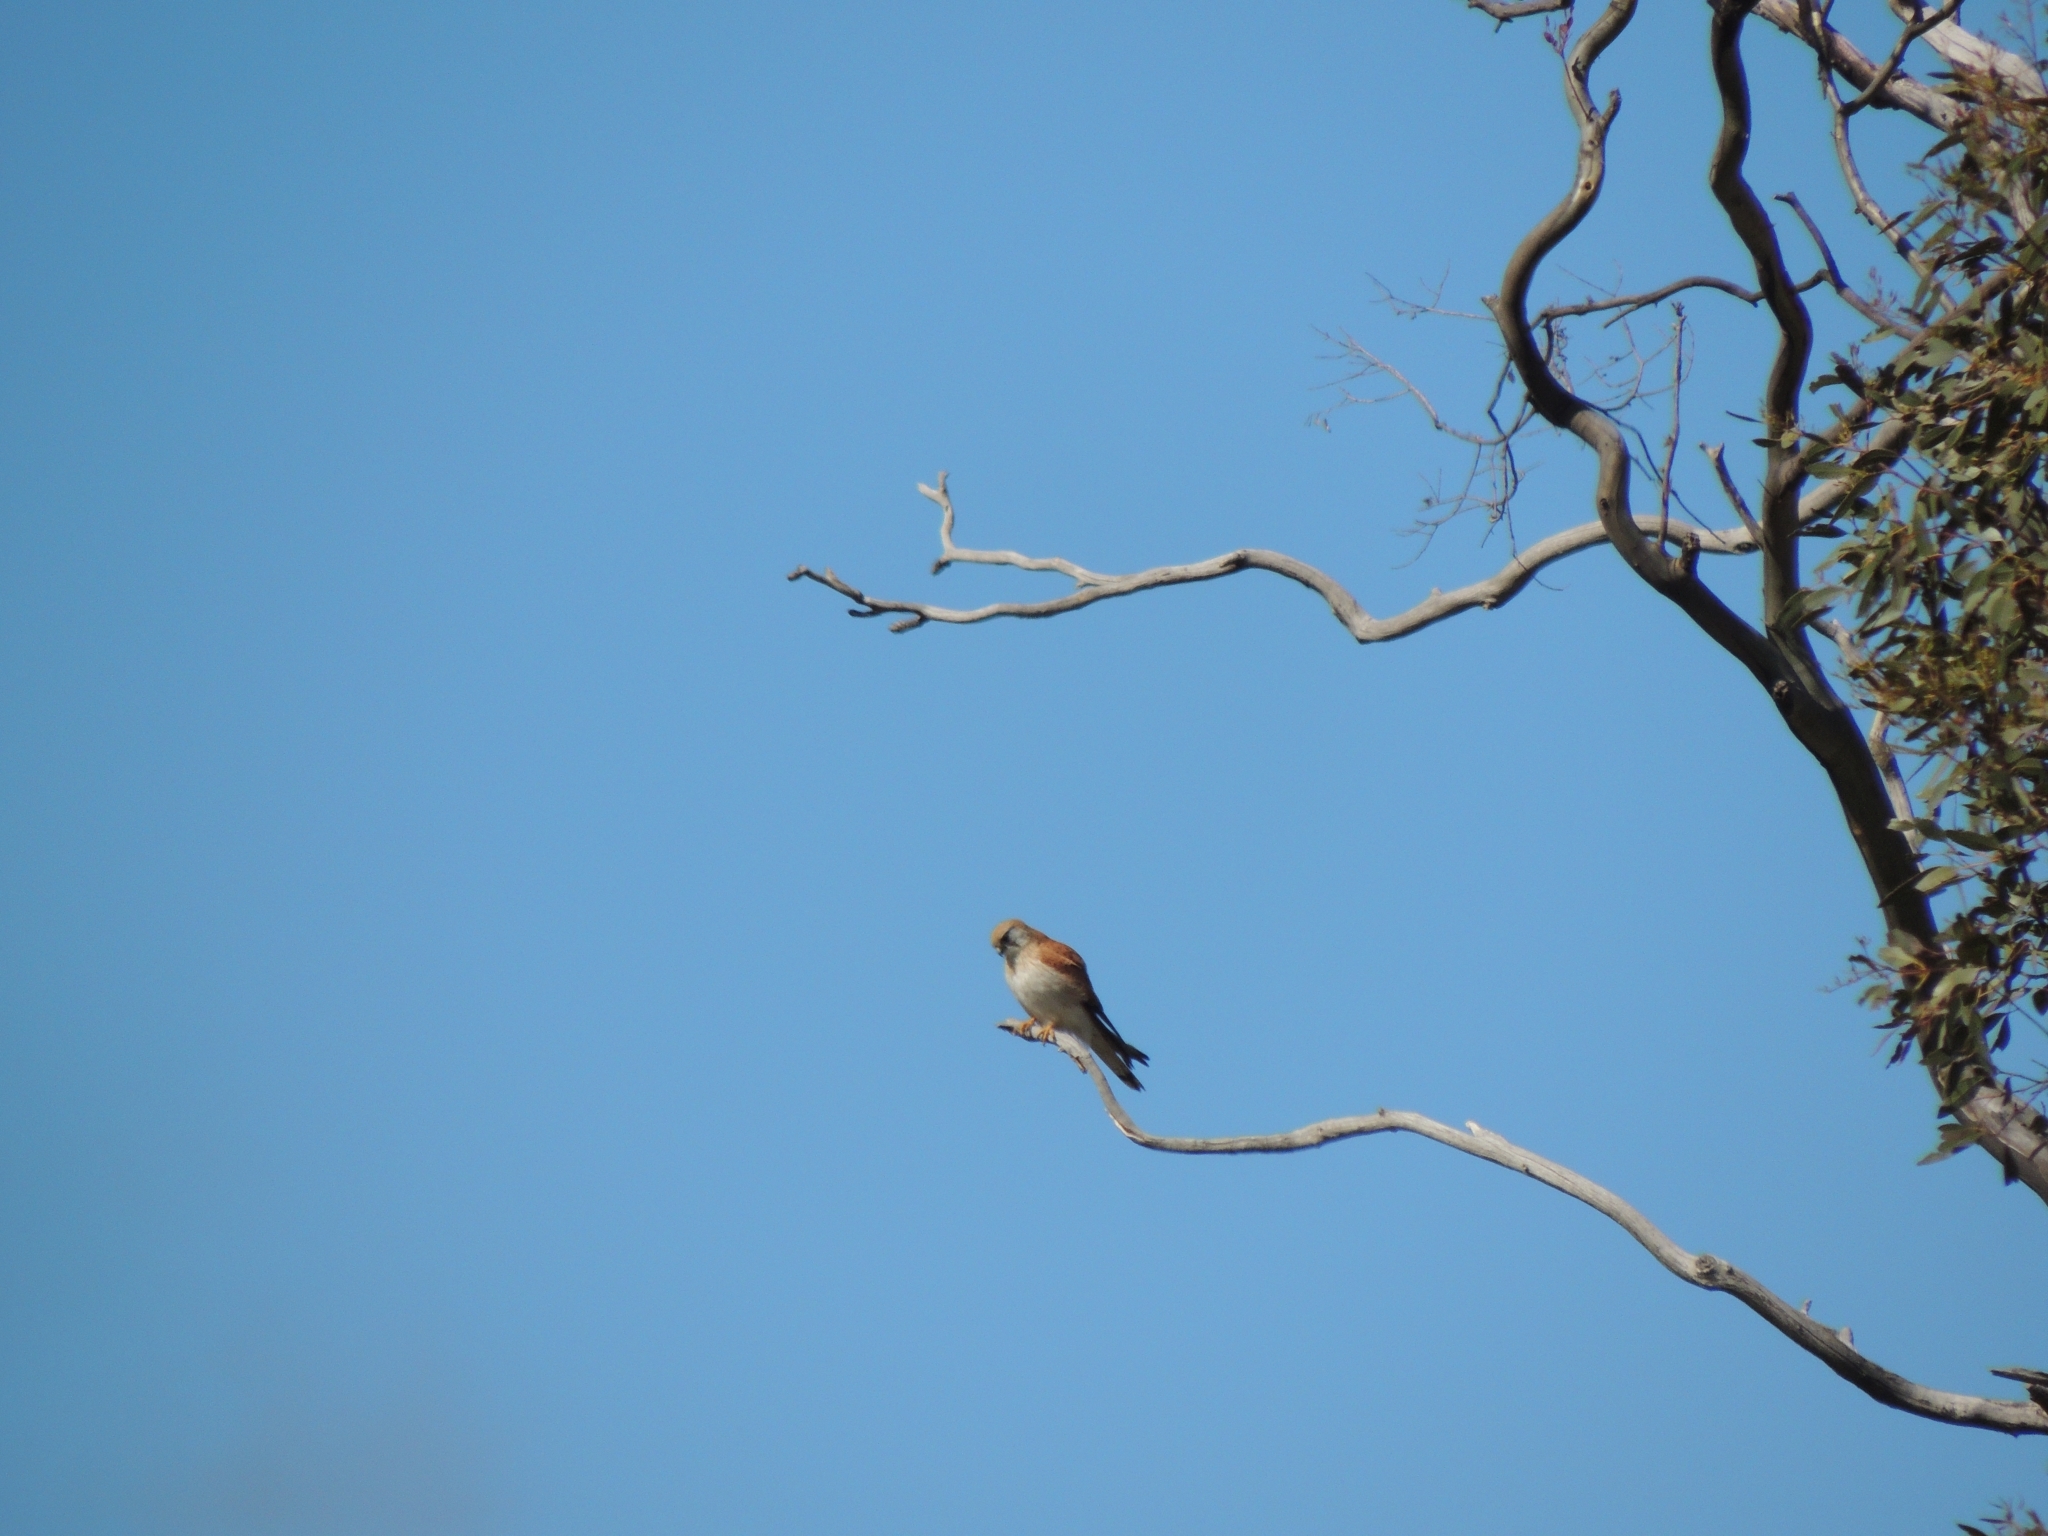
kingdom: Animalia
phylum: Chordata
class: Aves
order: Falconiformes
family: Falconidae
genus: Falco
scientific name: Falco cenchroides
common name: Nankeen kestrel
